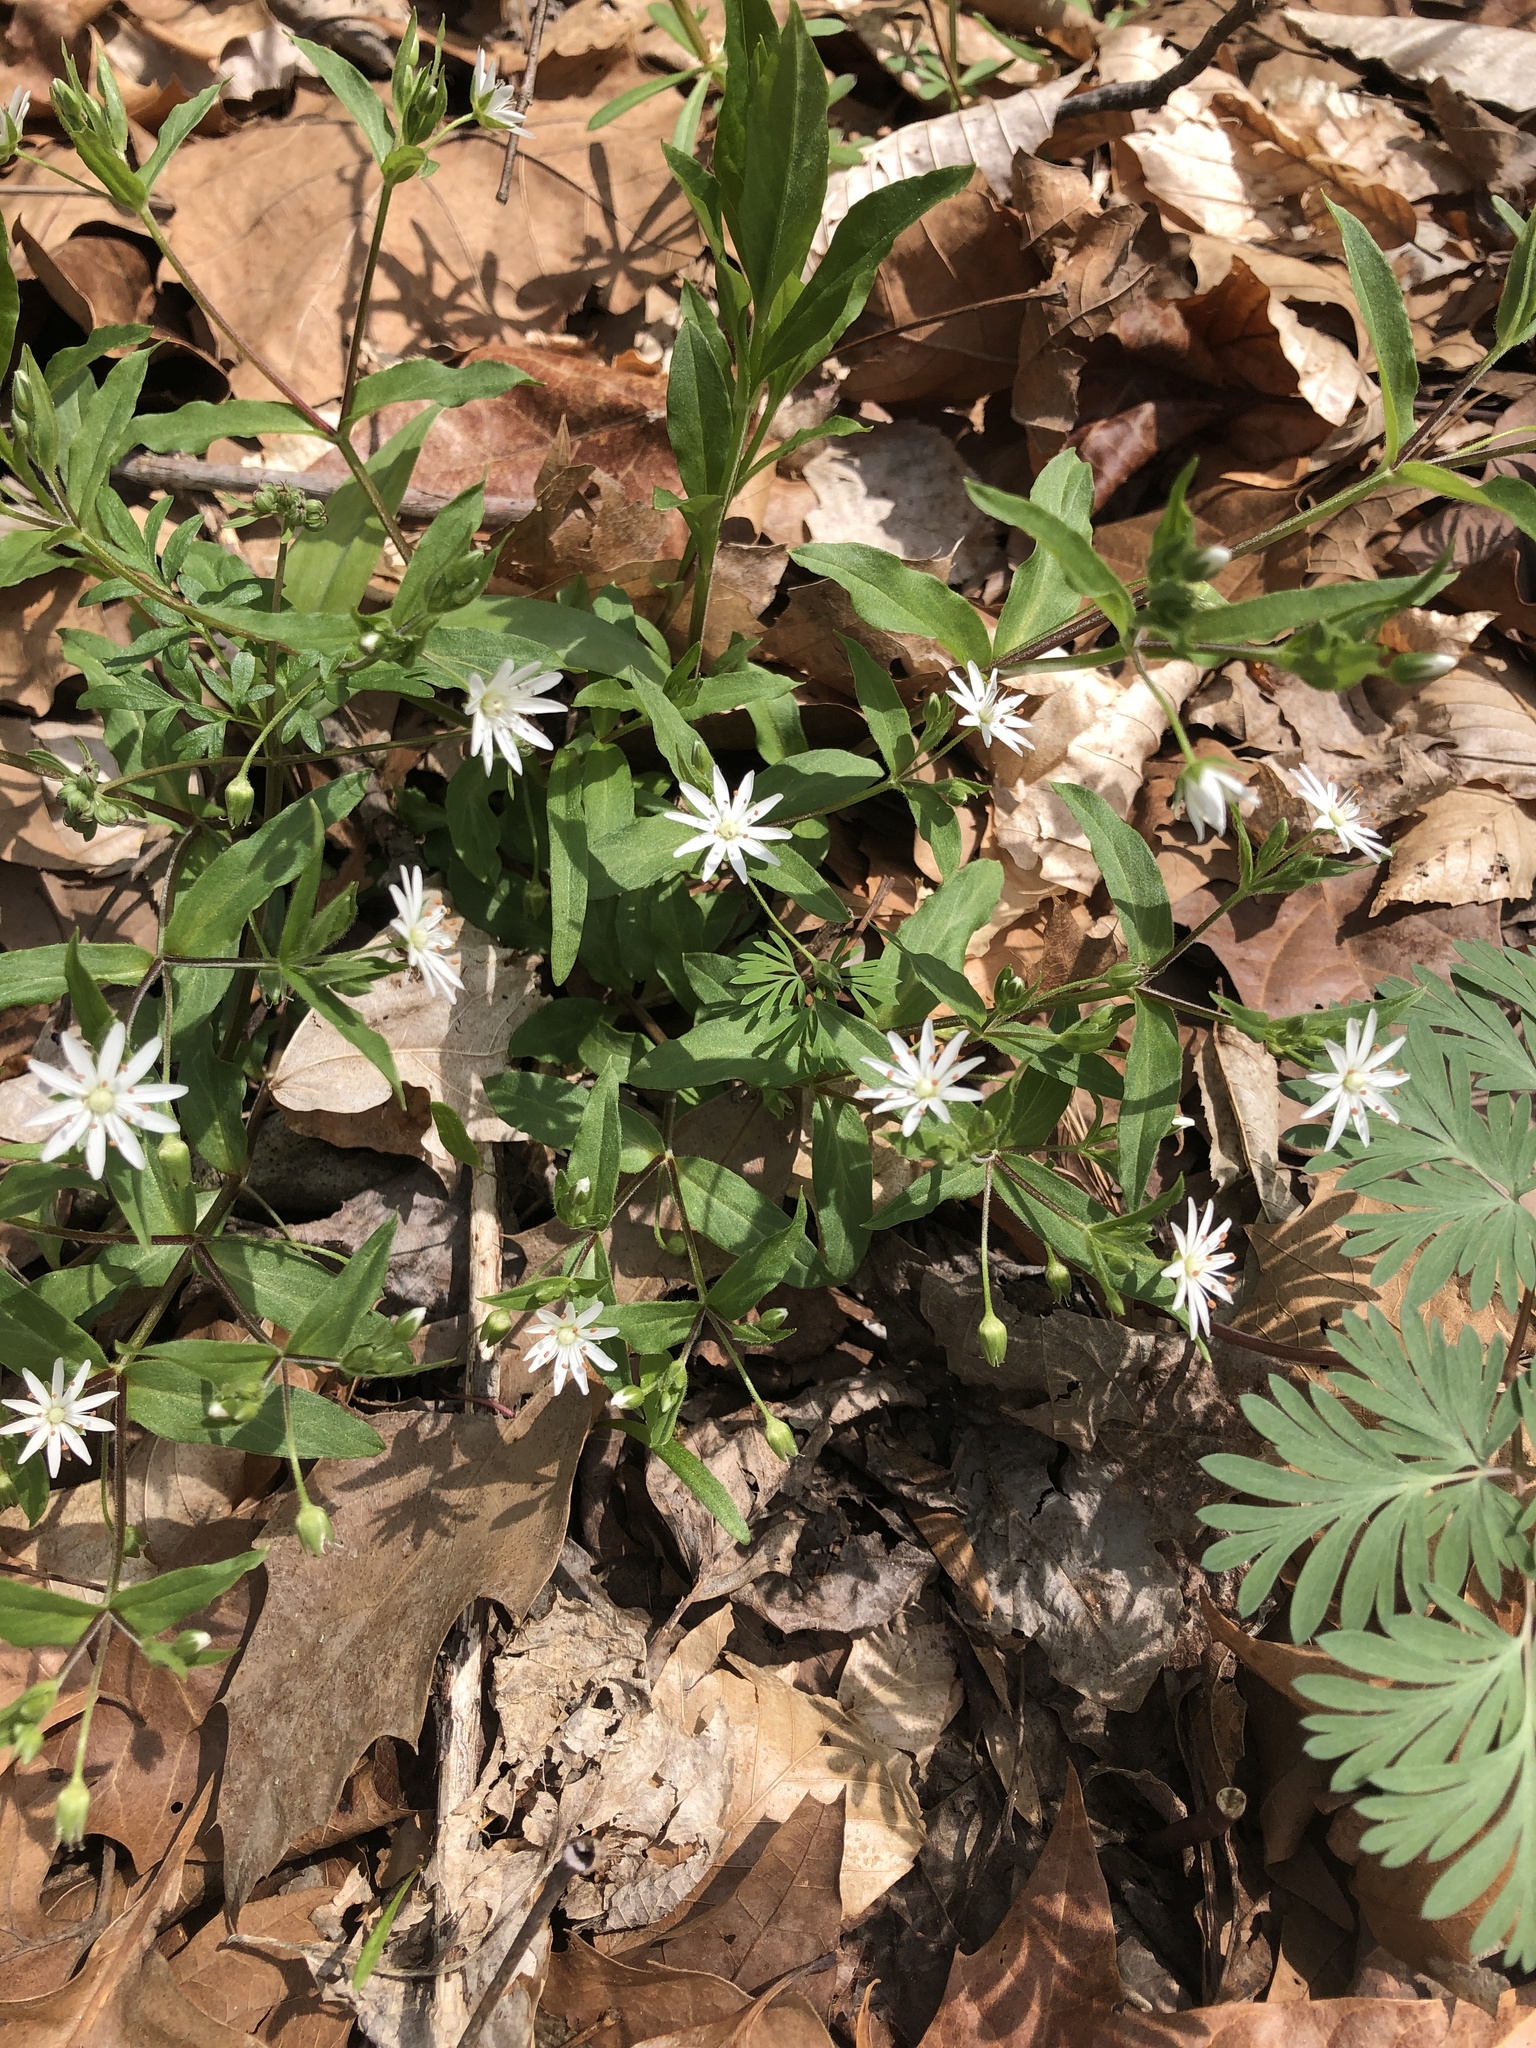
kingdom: Plantae
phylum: Tracheophyta
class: Magnoliopsida
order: Caryophyllales
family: Caryophyllaceae
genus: Stellaria
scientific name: Stellaria pubera
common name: Star chickweed
